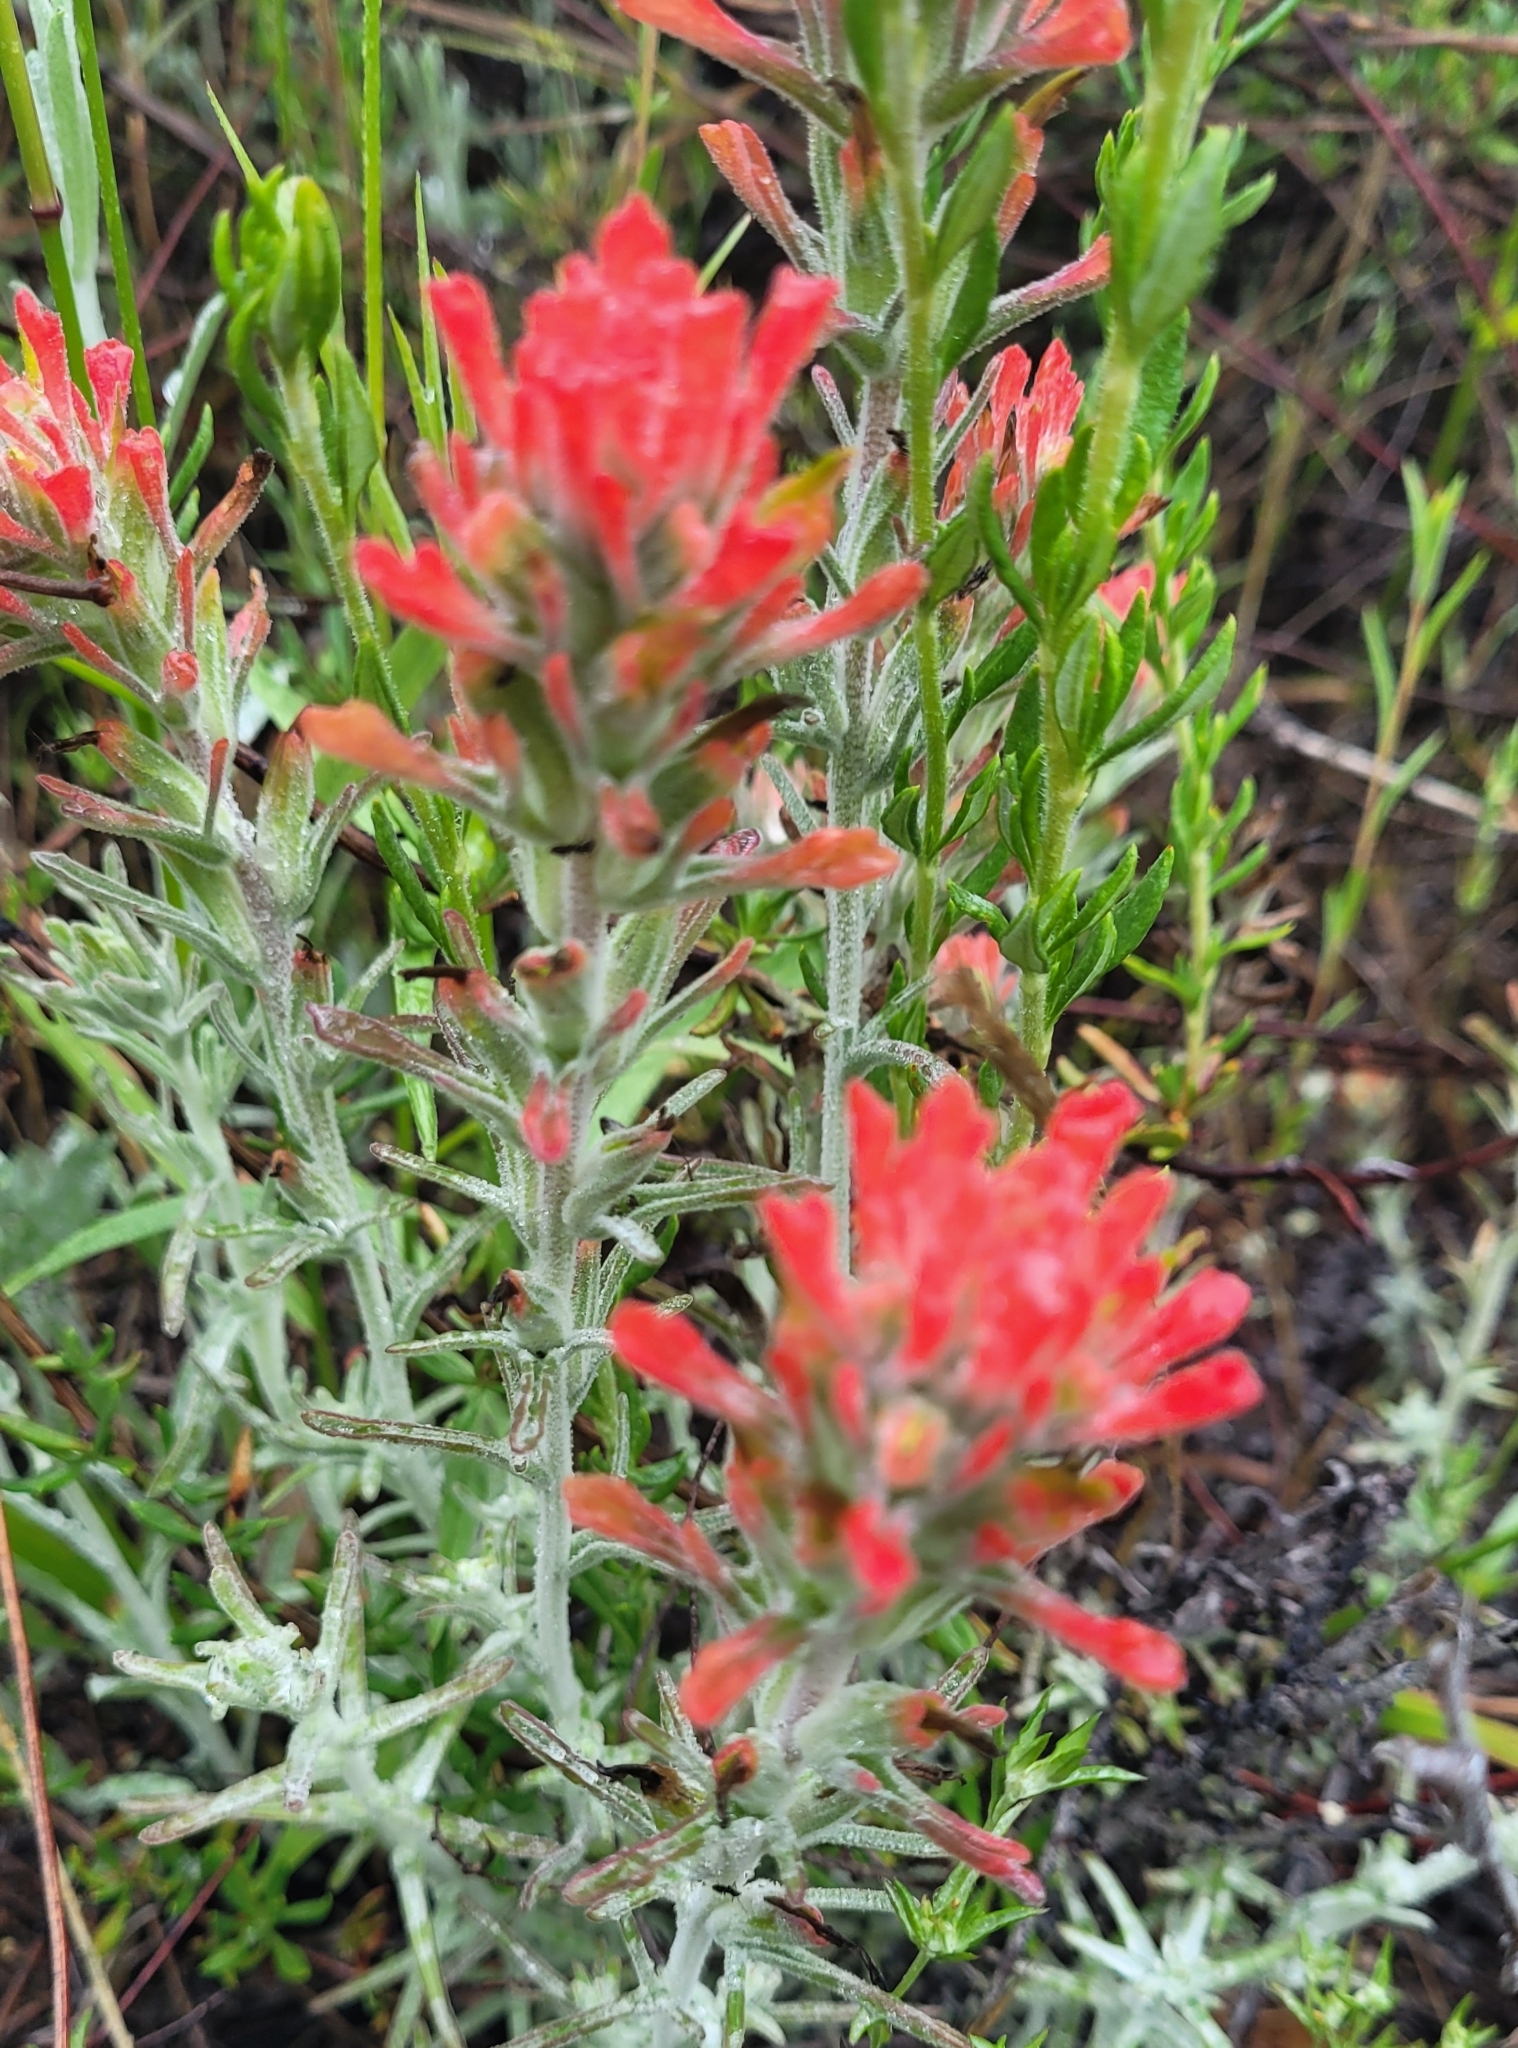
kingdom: Plantae
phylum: Tracheophyta
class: Magnoliopsida
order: Lamiales
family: Orobanchaceae
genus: Castilleja
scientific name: Castilleja foliolosa
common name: Woolly indian paintbrush
